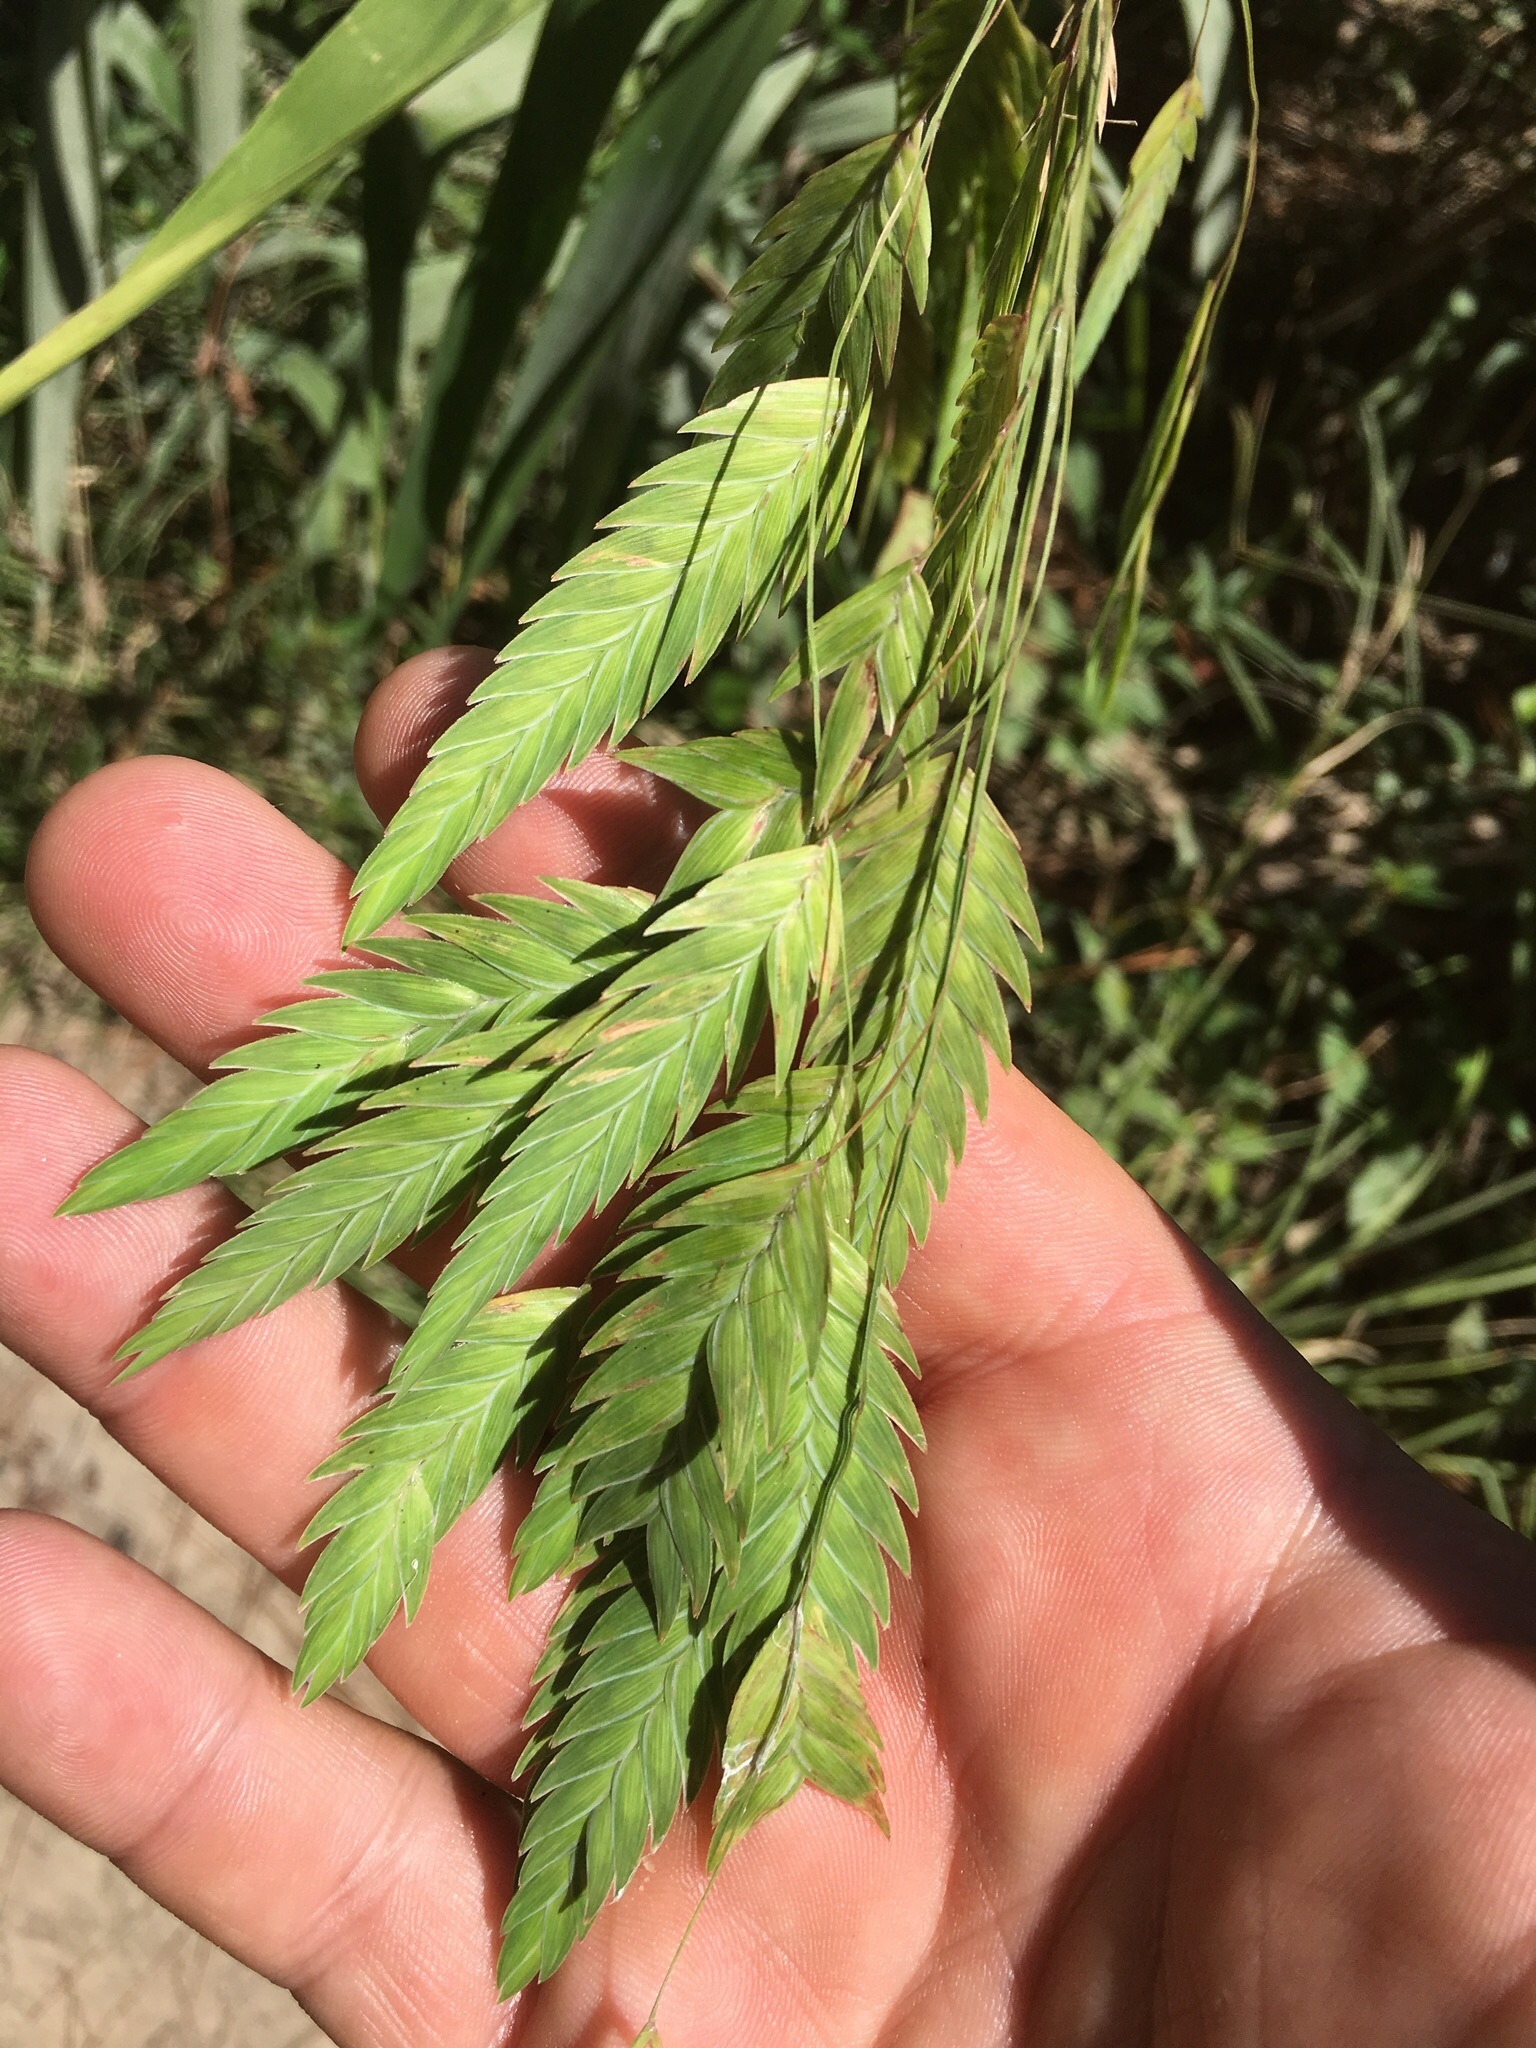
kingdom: Plantae
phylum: Tracheophyta
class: Liliopsida
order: Poales
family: Poaceae
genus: Chasmanthium
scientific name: Chasmanthium latifolium
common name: Broad-leaved chasmanthium
